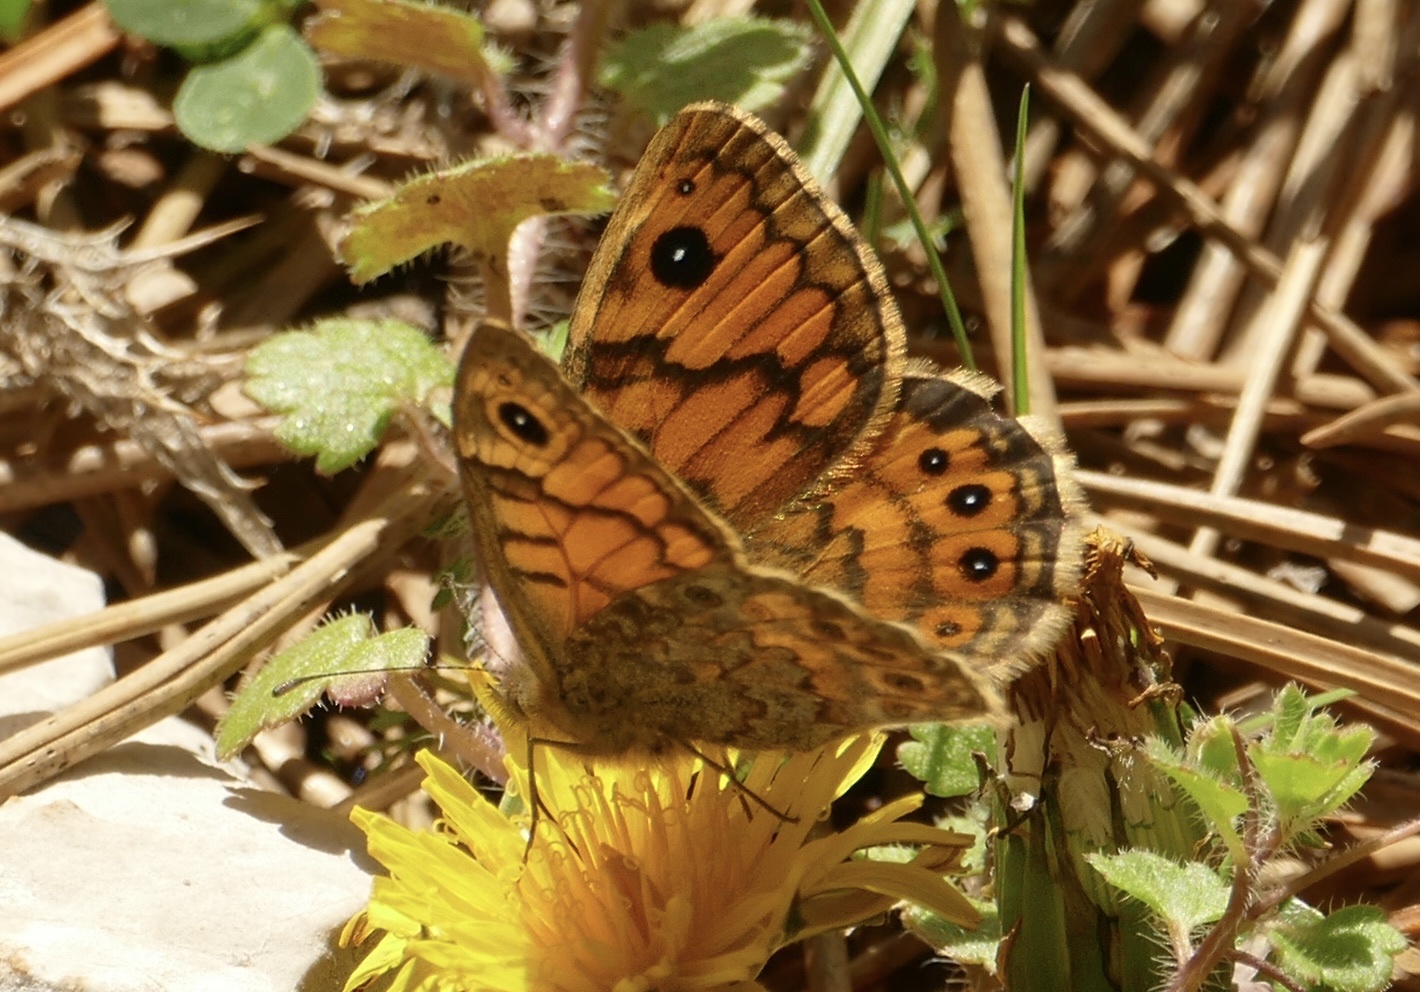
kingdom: Animalia
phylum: Arthropoda
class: Insecta
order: Lepidoptera
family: Nymphalidae
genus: Pararge
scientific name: Pararge Lasiommata megera
